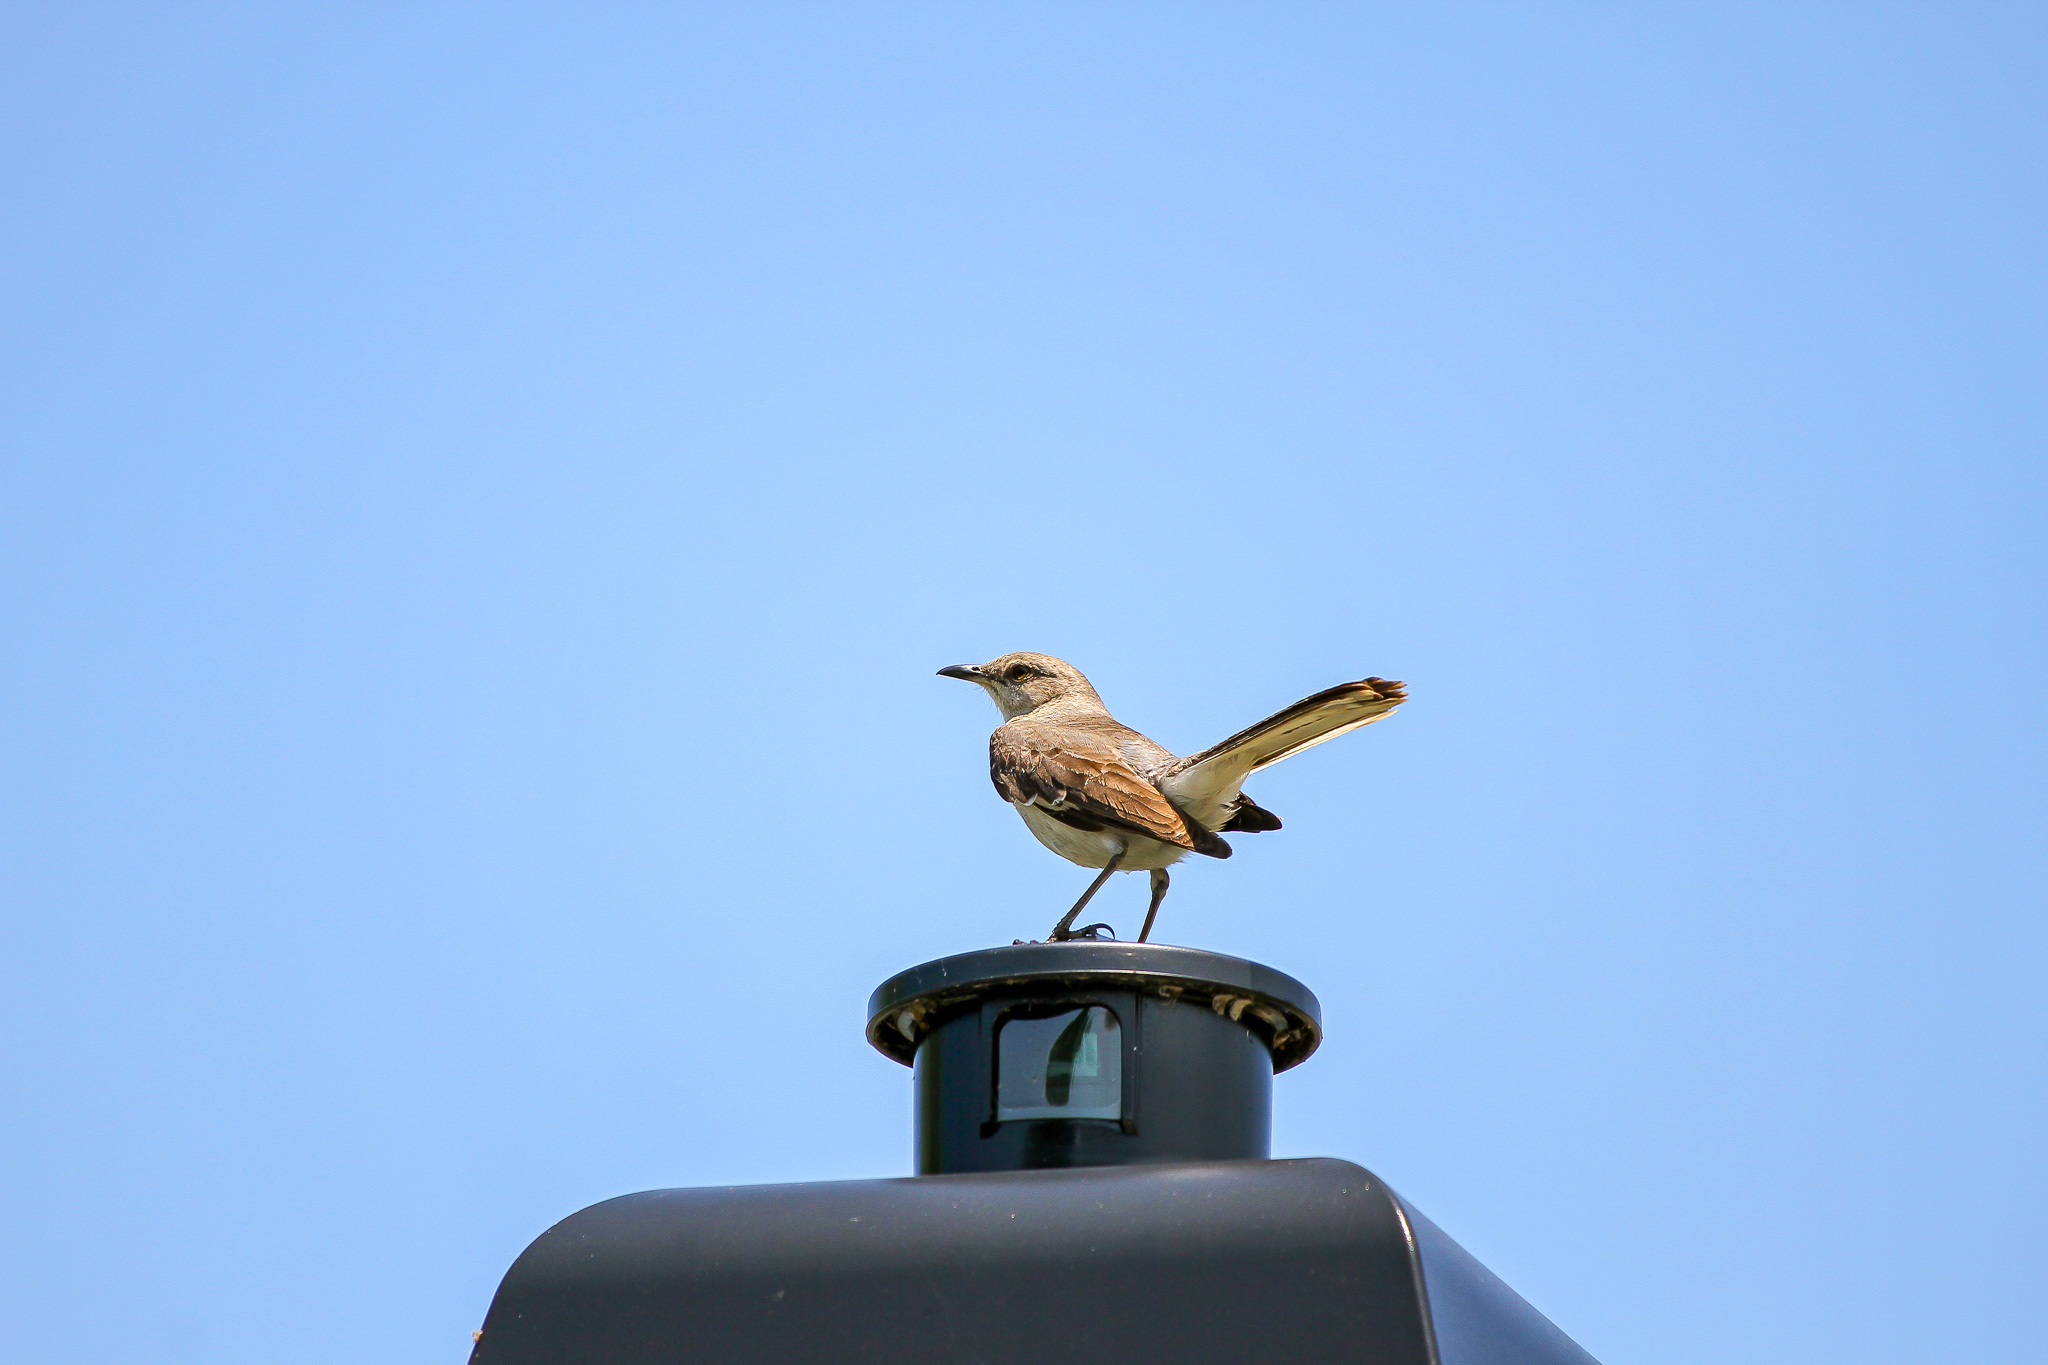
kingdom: Animalia
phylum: Chordata
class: Aves
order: Passeriformes
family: Mimidae
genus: Mimus
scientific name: Mimus polyglottos
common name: Northern mockingbird
